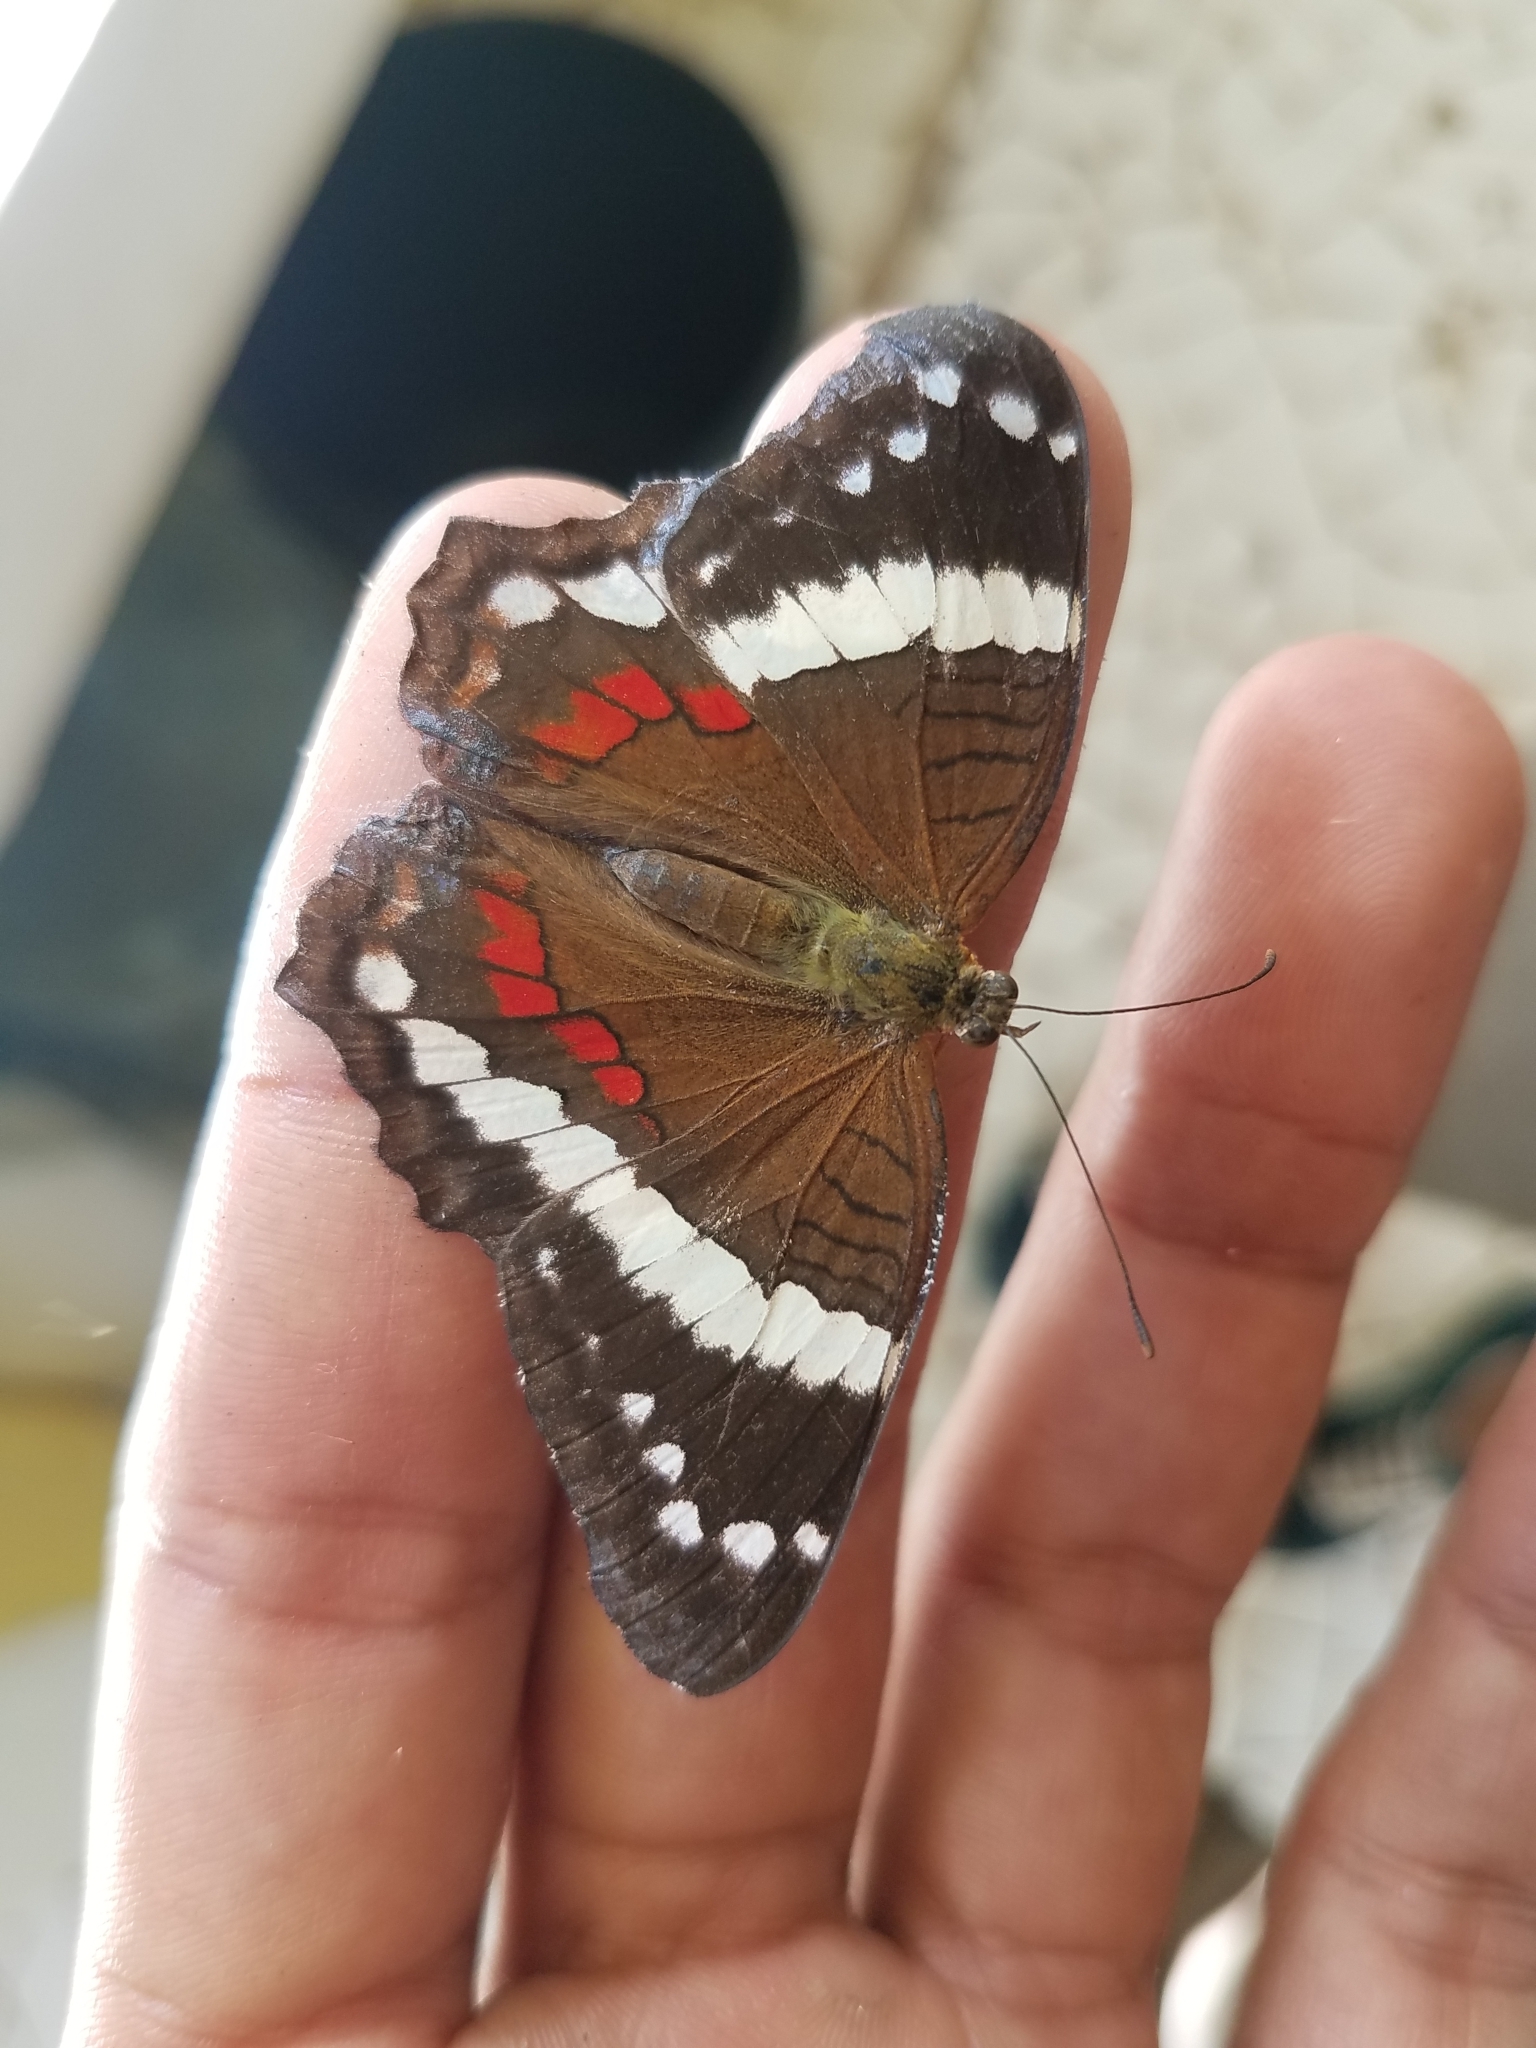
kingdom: Animalia
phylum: Arthropoda
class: Insecta
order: Lepidoptera
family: Nymphalidae
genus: Anartia
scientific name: Anartia fatima
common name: Banded peacock
